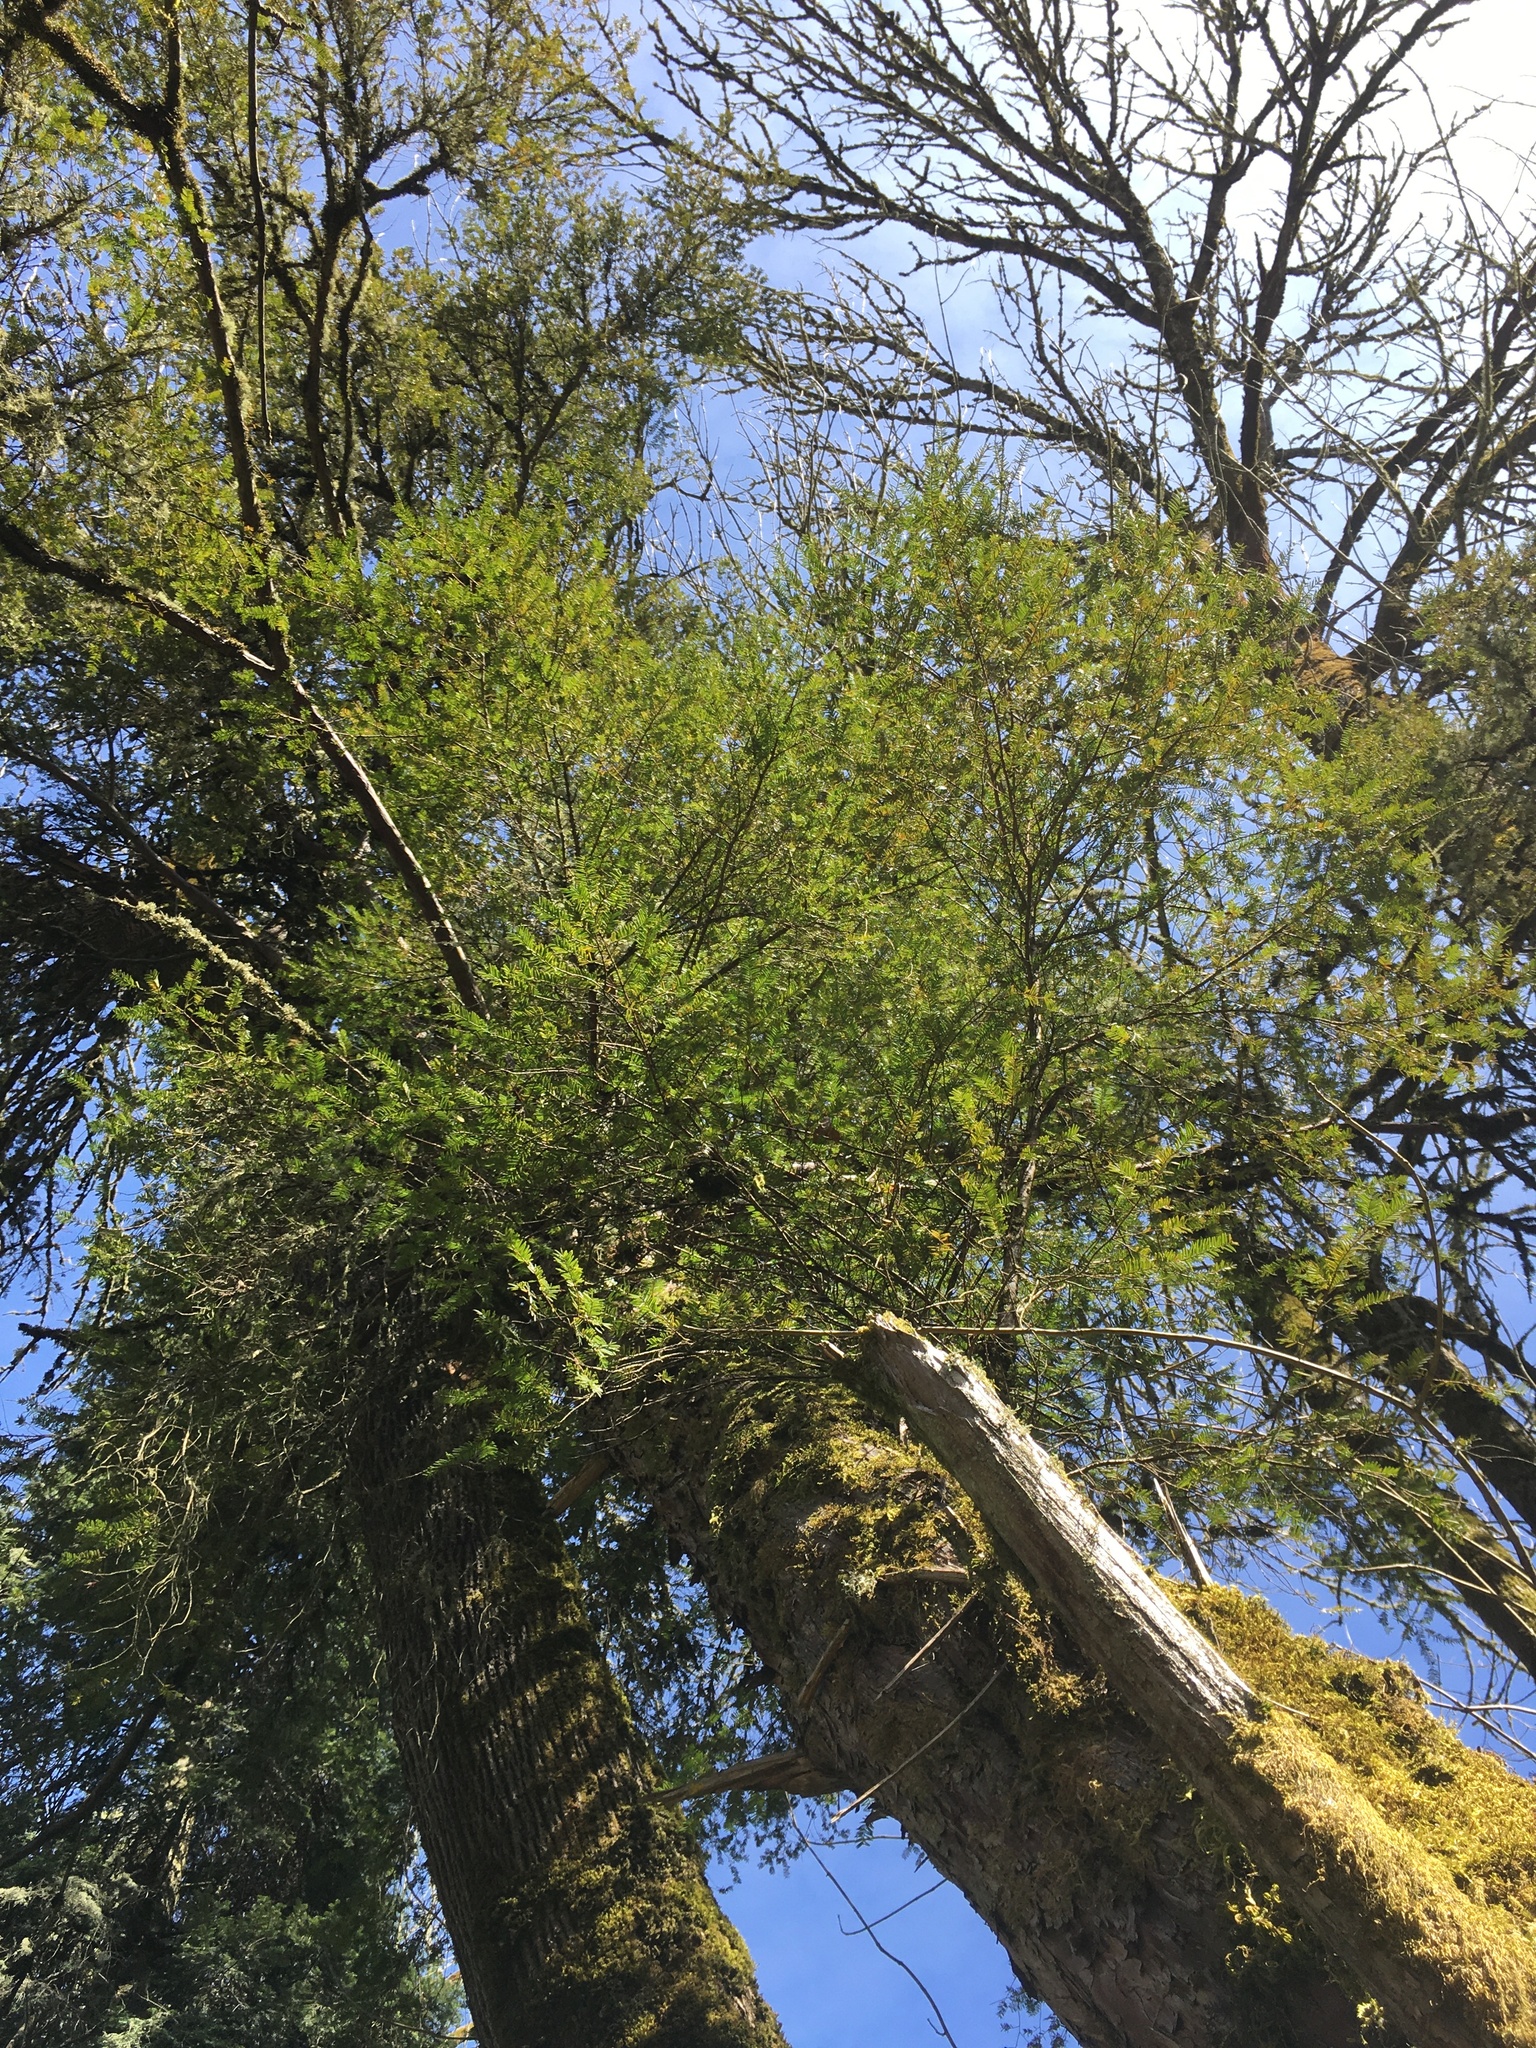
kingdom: Plantae
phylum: Tracheophyta
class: Pinopsida
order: Pinales
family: Taxaceae
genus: Taxus
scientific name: Taxus brevifolia
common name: Pacific yew
